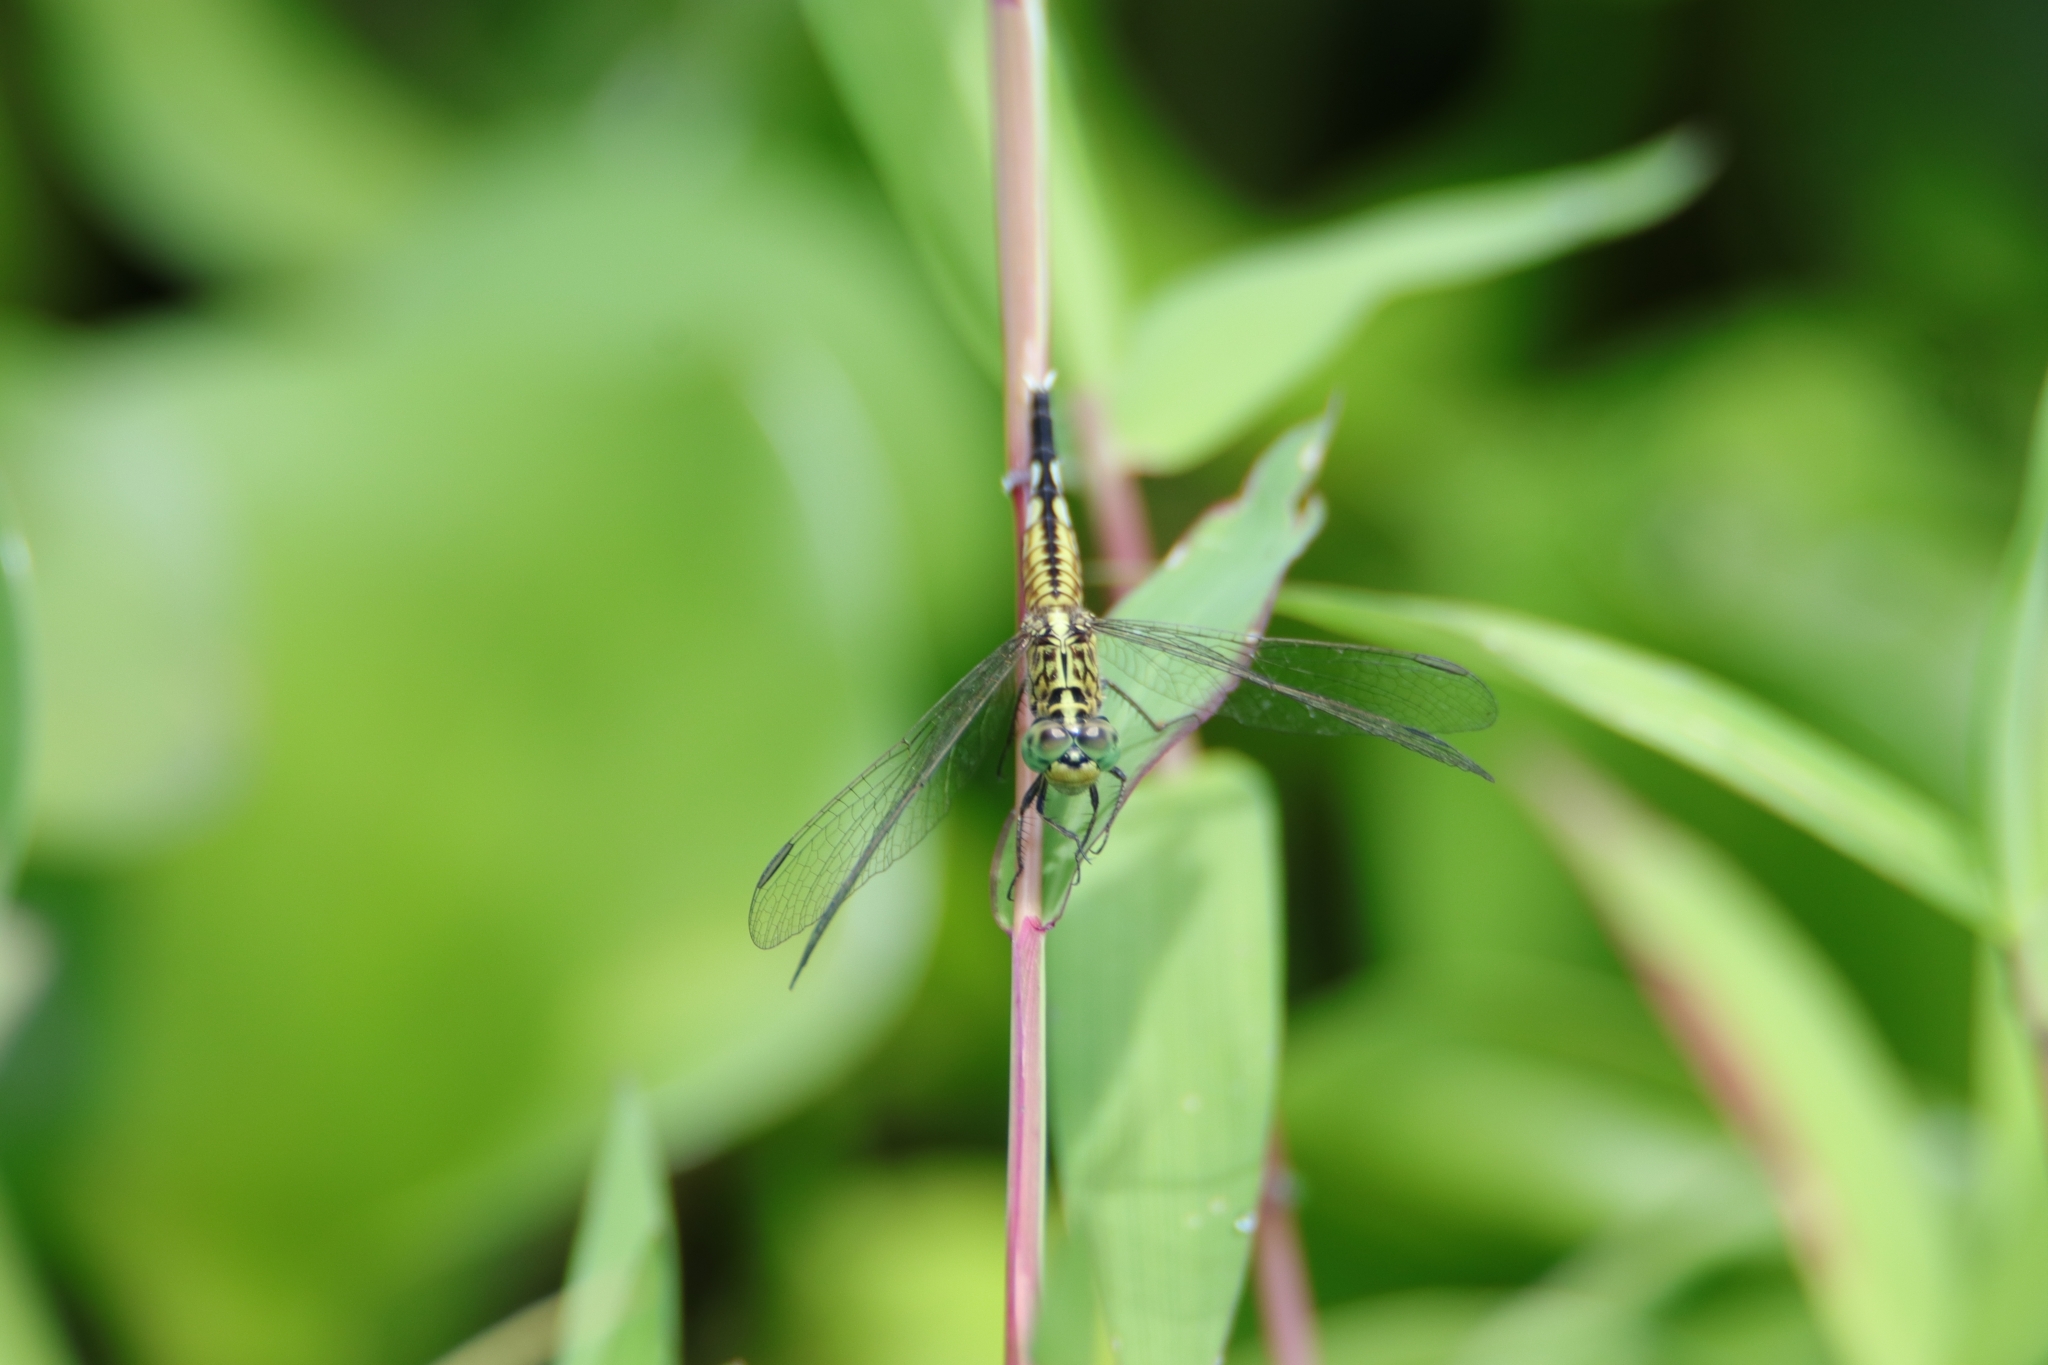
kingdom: Animalia
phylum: Arthropoda
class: Insecta
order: Odonata
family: Libellulidae
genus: Acisoma
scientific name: Acisoma panorpoides
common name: Asian pintail
